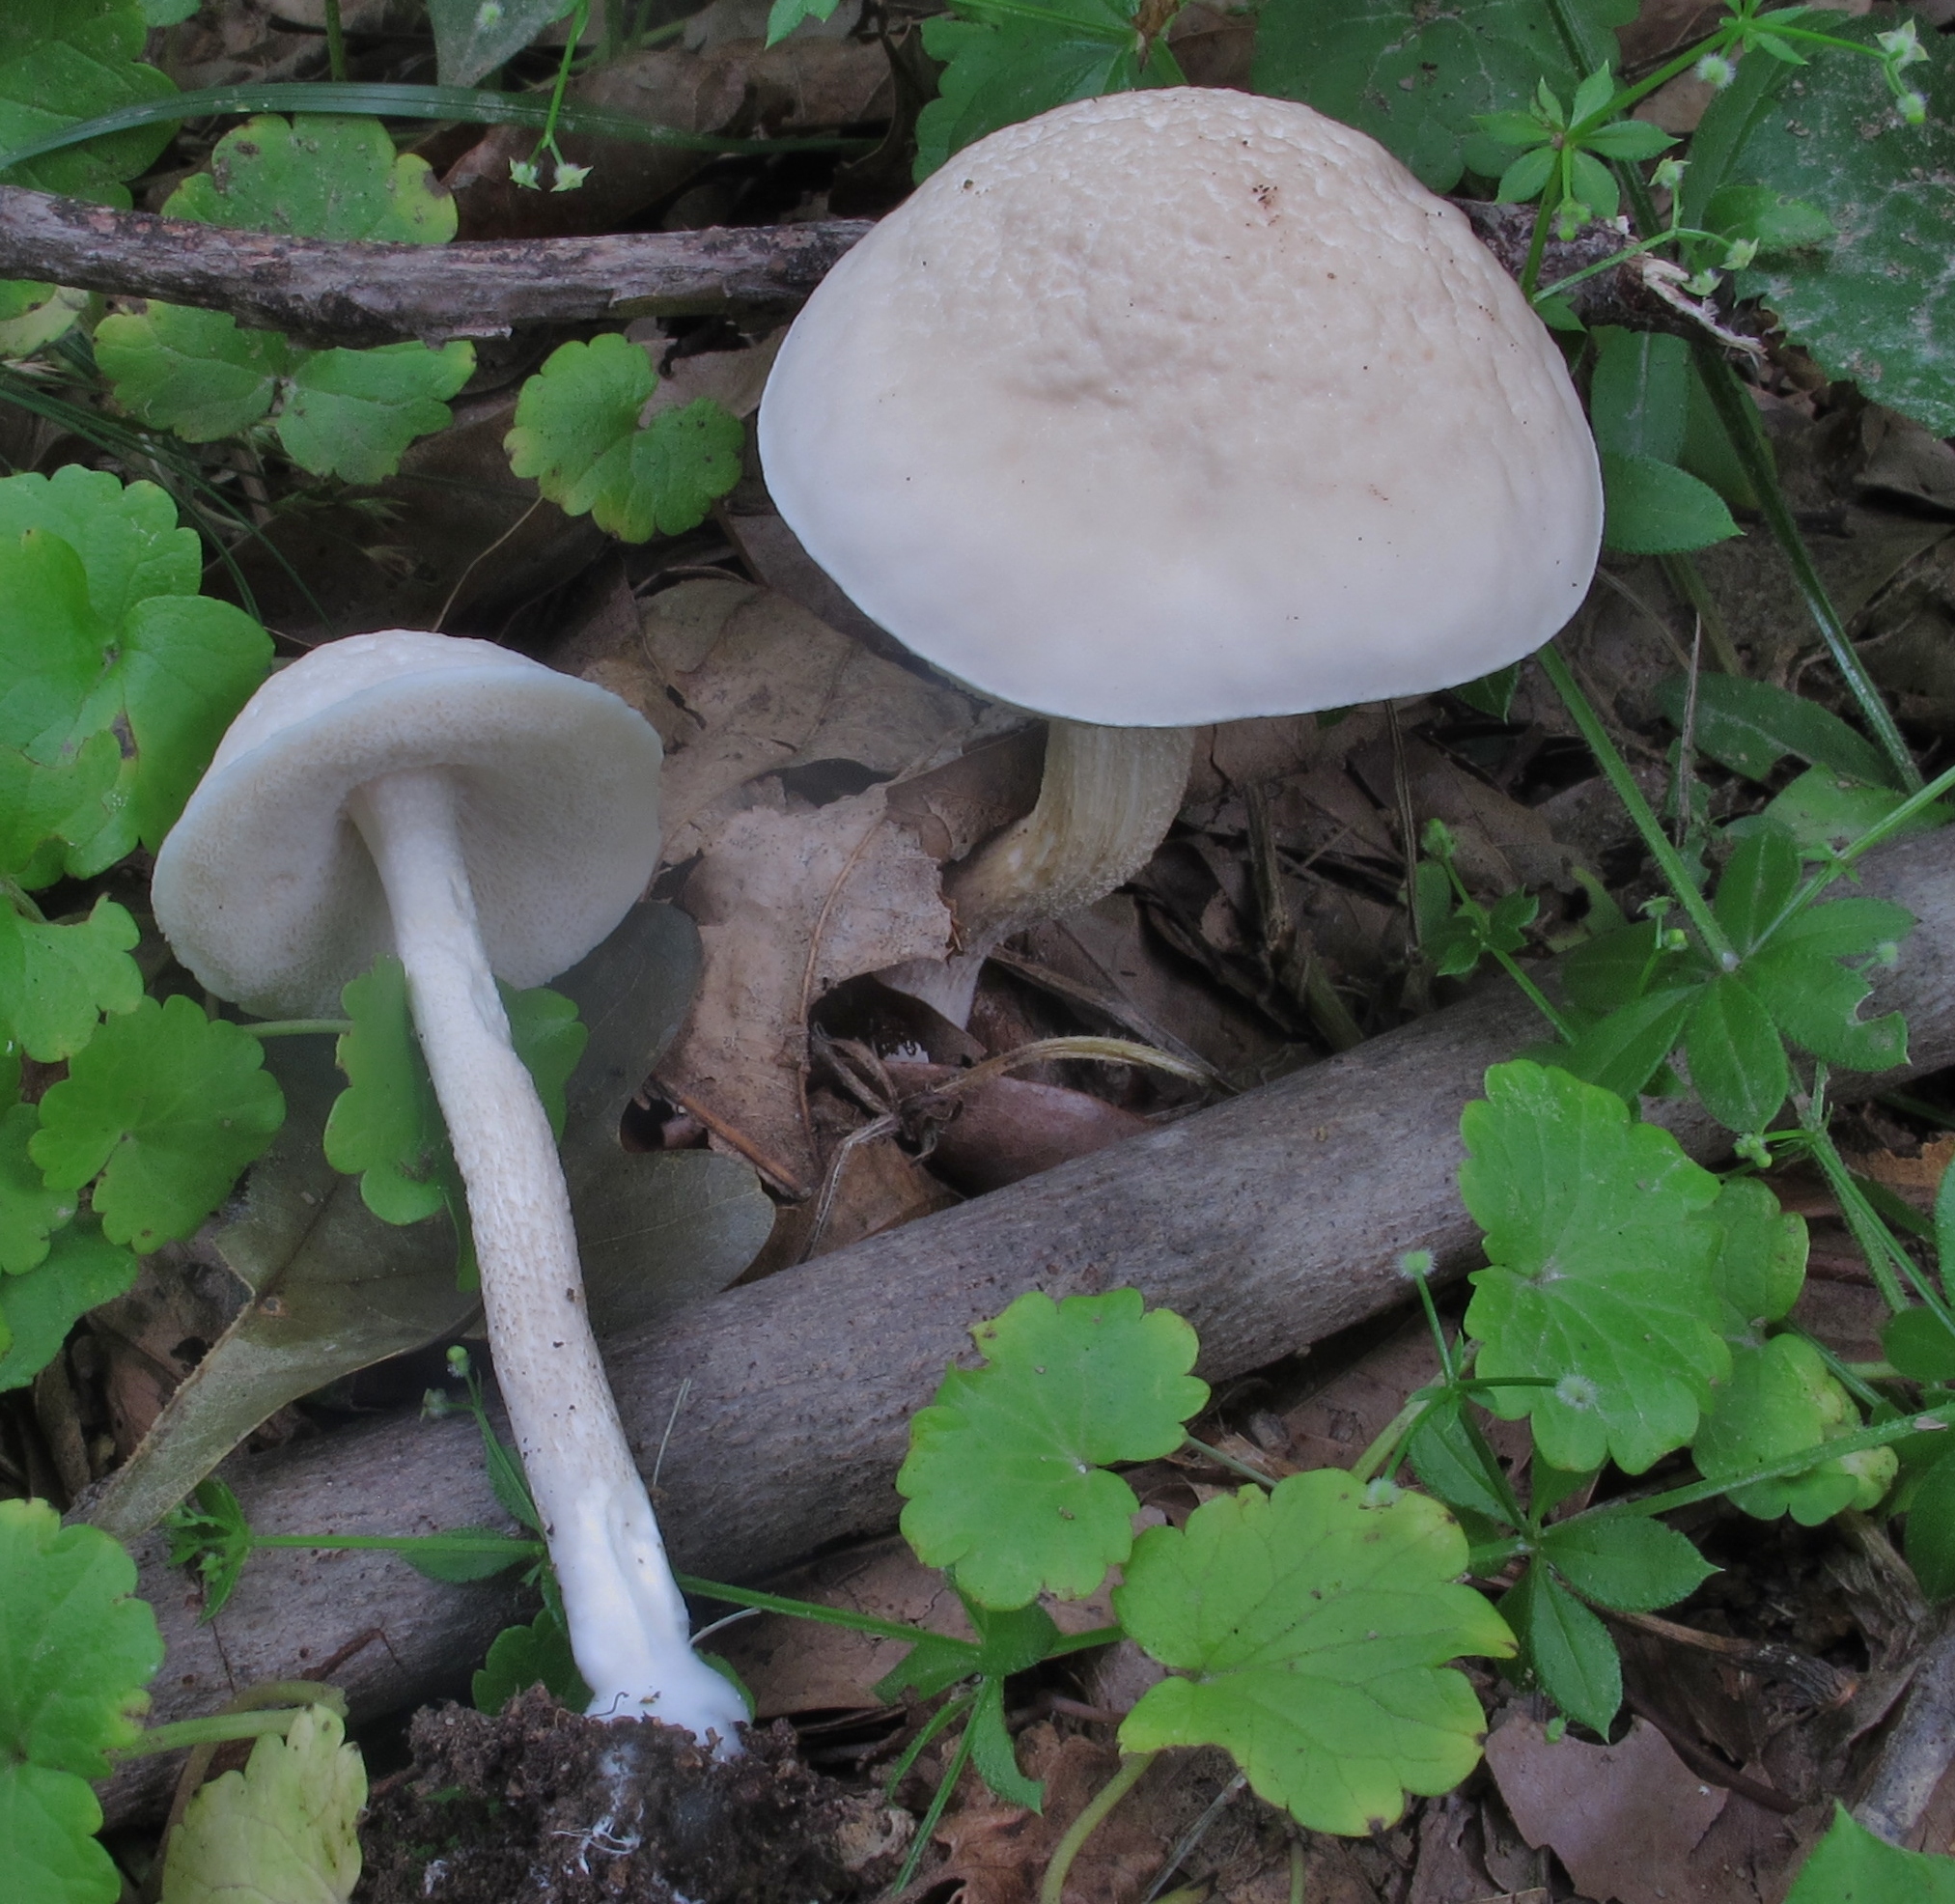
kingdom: Fungi
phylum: Basidiomycota
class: Agaricomycetes
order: Boletales
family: Boletaceae
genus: Leccinellum
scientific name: Leccinellum albellum
